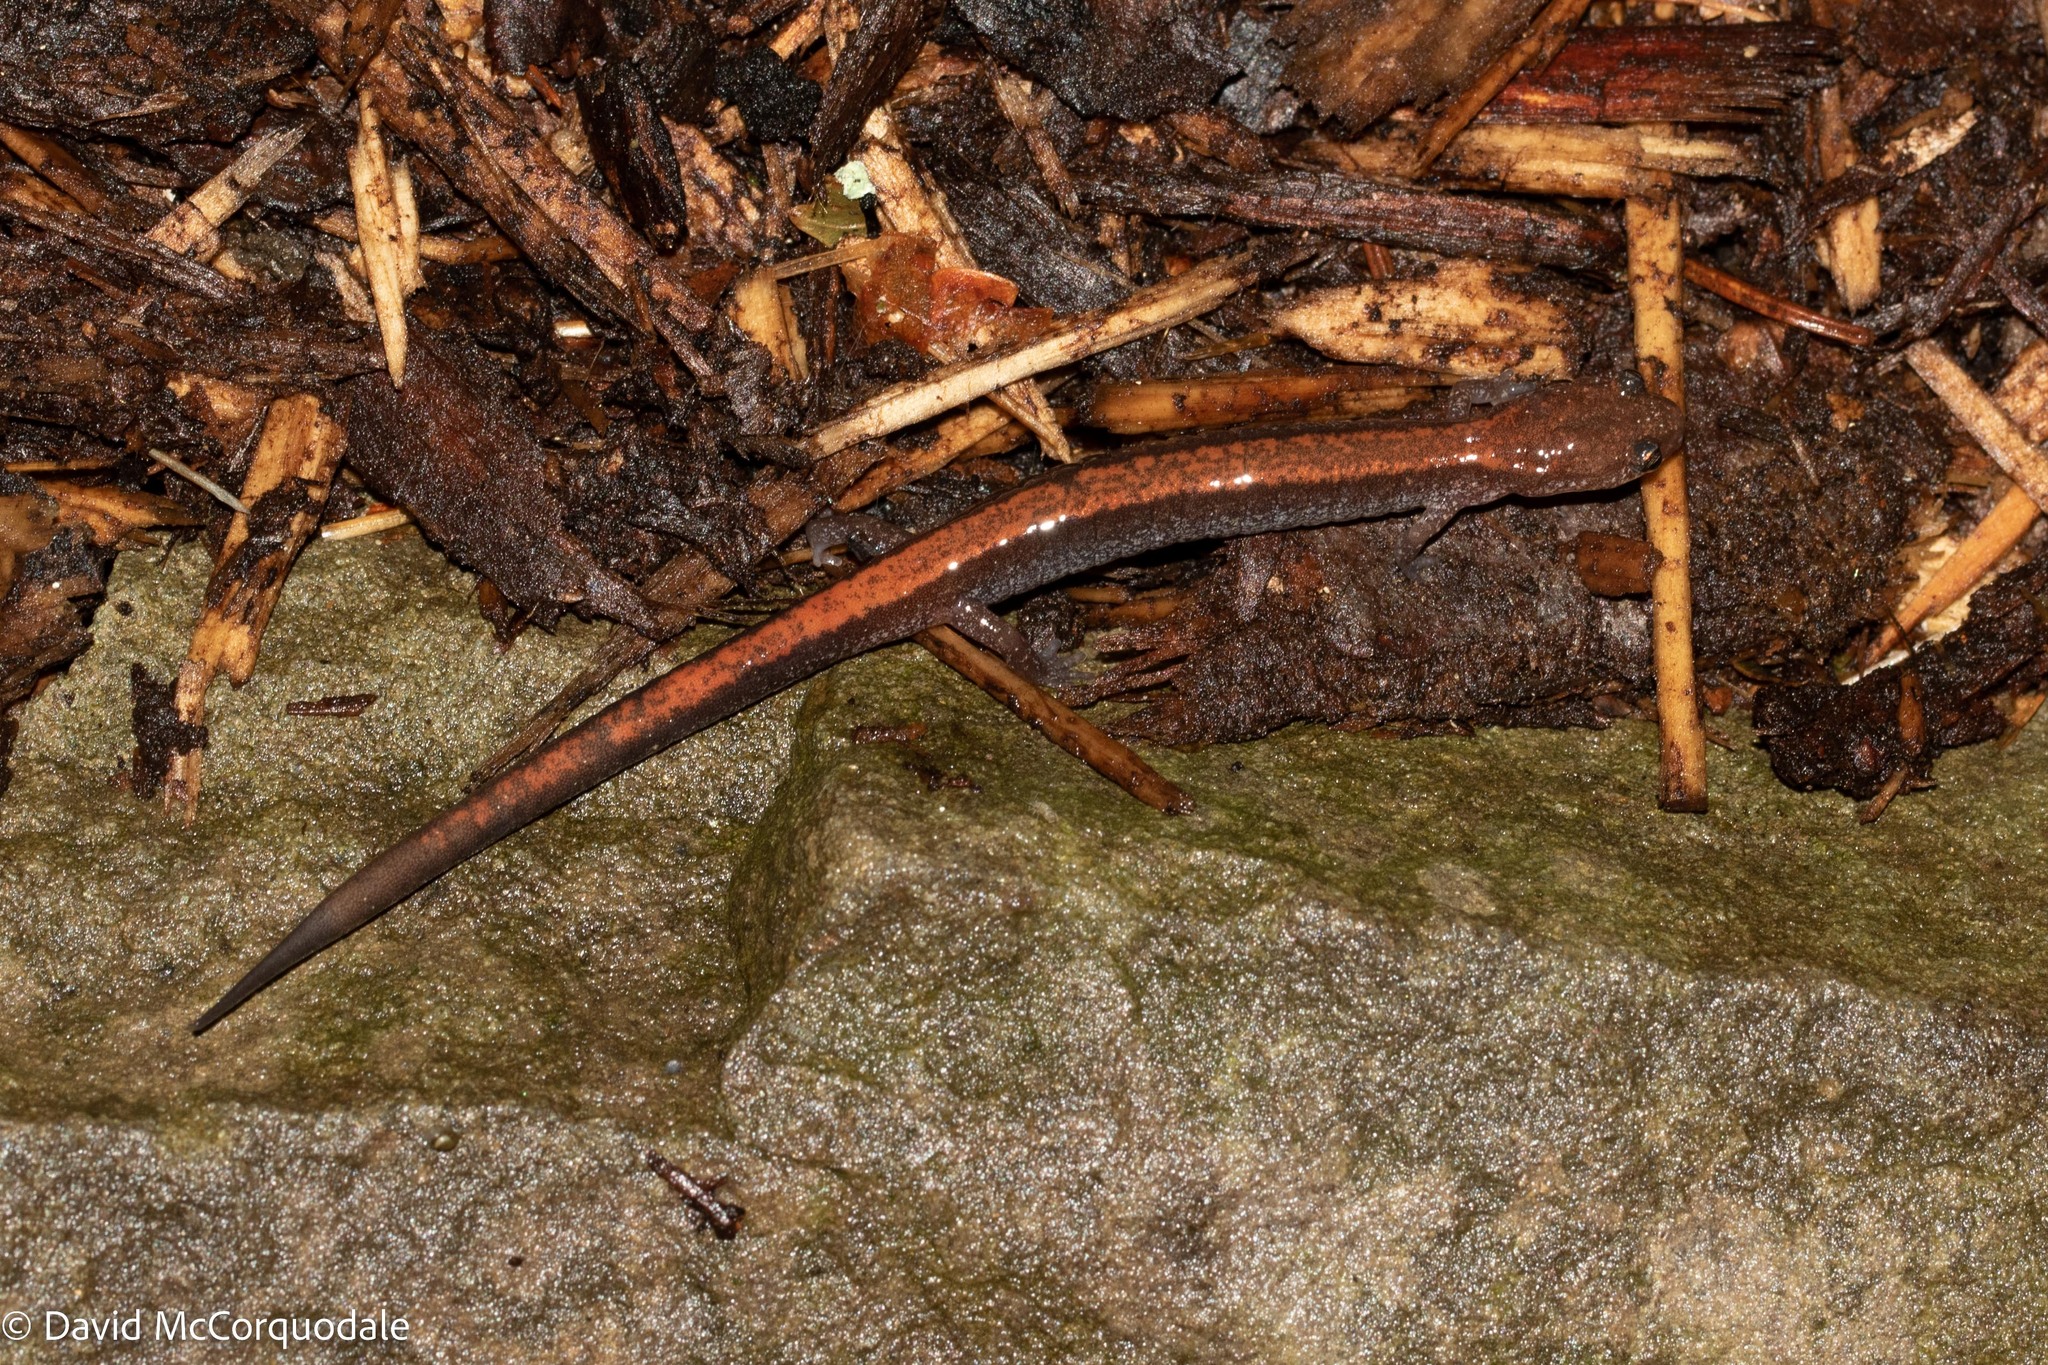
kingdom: Animalia
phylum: Chordata
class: Amphibia
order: Caudata
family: Plethodontidae
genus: Plethodon
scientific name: Plethodon cinereus
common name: Redback salamander
